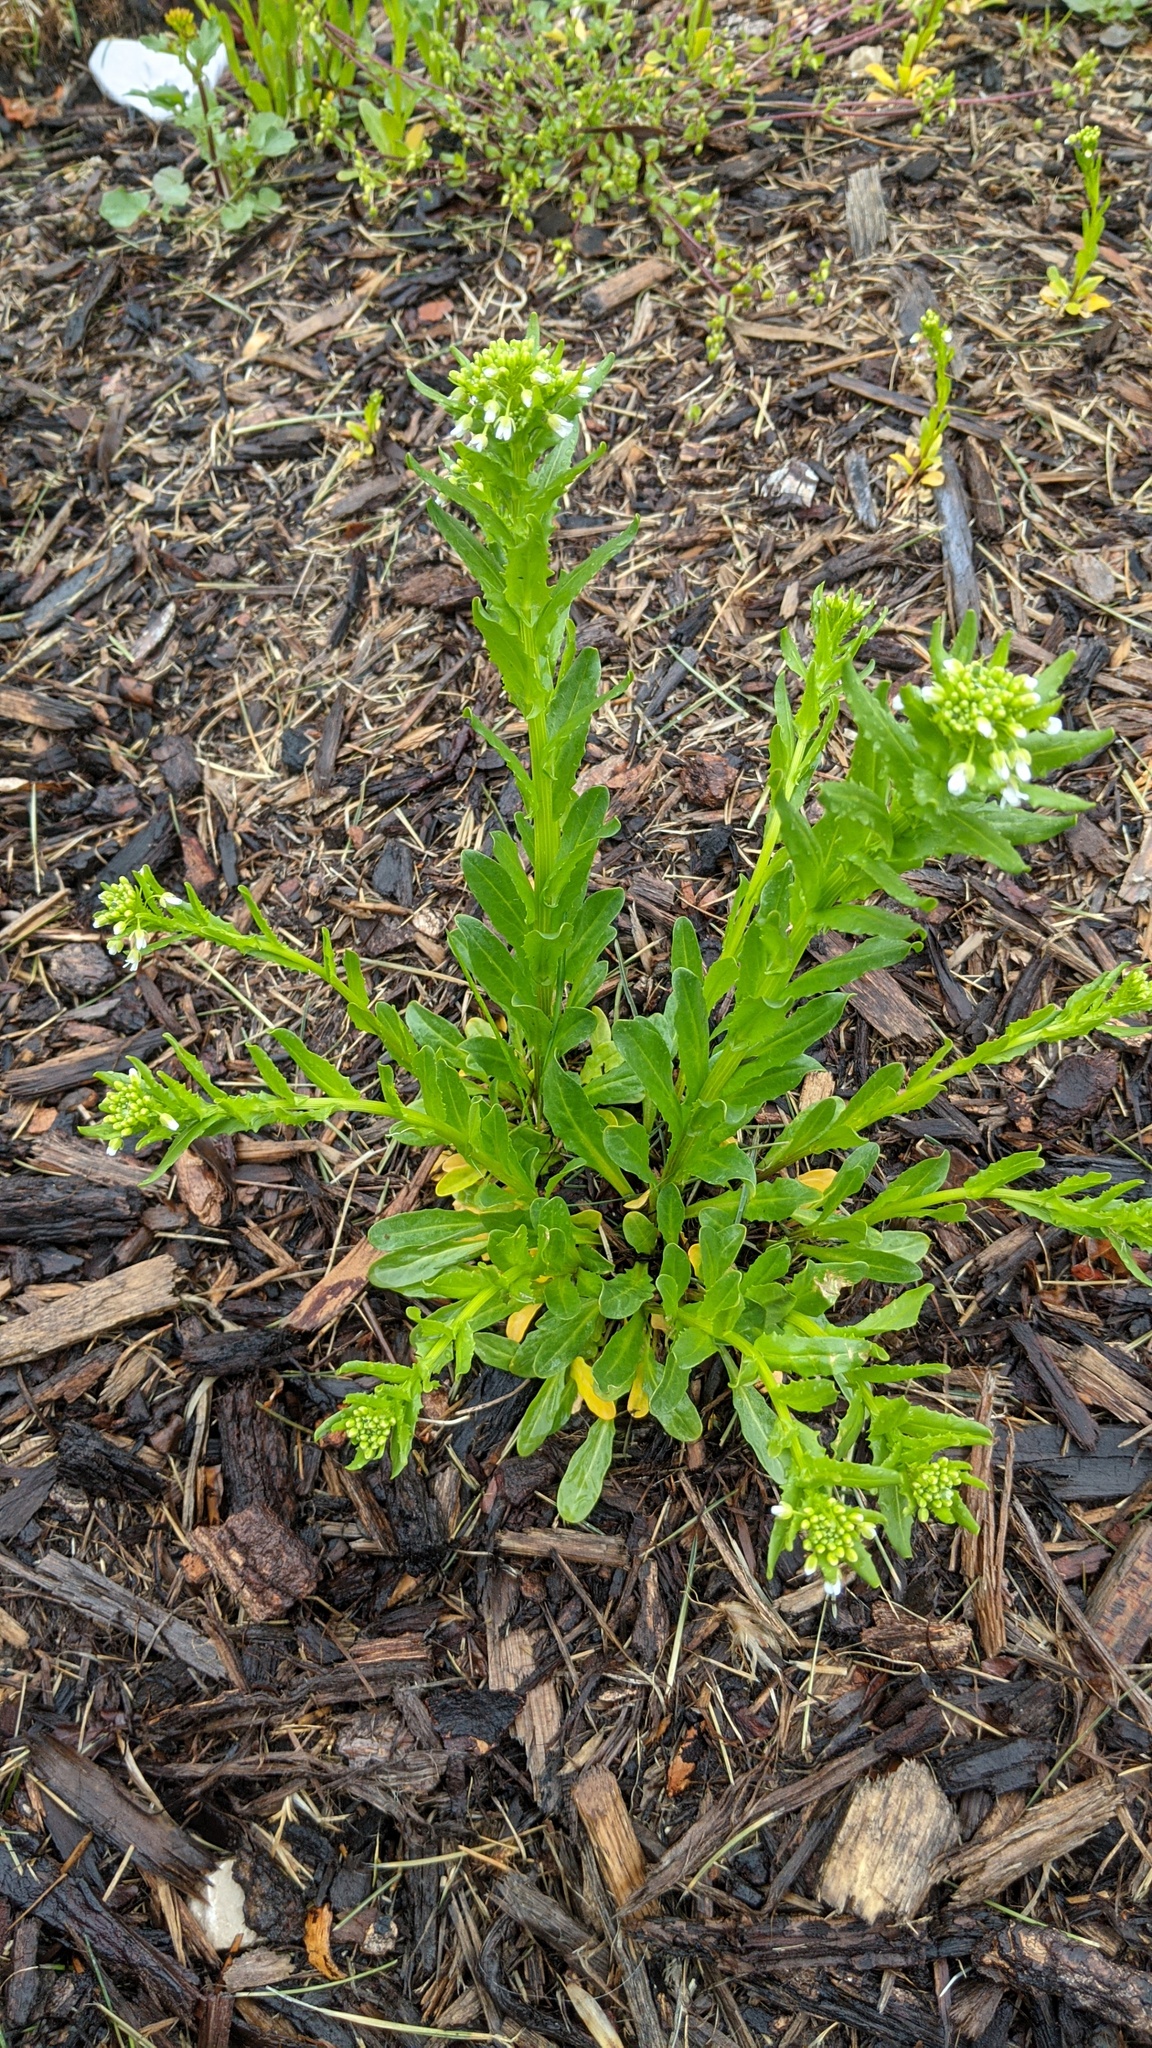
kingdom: Plantae
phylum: Tracheophyta
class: Magnoliopsida
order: Brassicales
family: Brassicaceae
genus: Thlaspi
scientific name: Thlaspi arvense
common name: Field pennycress
